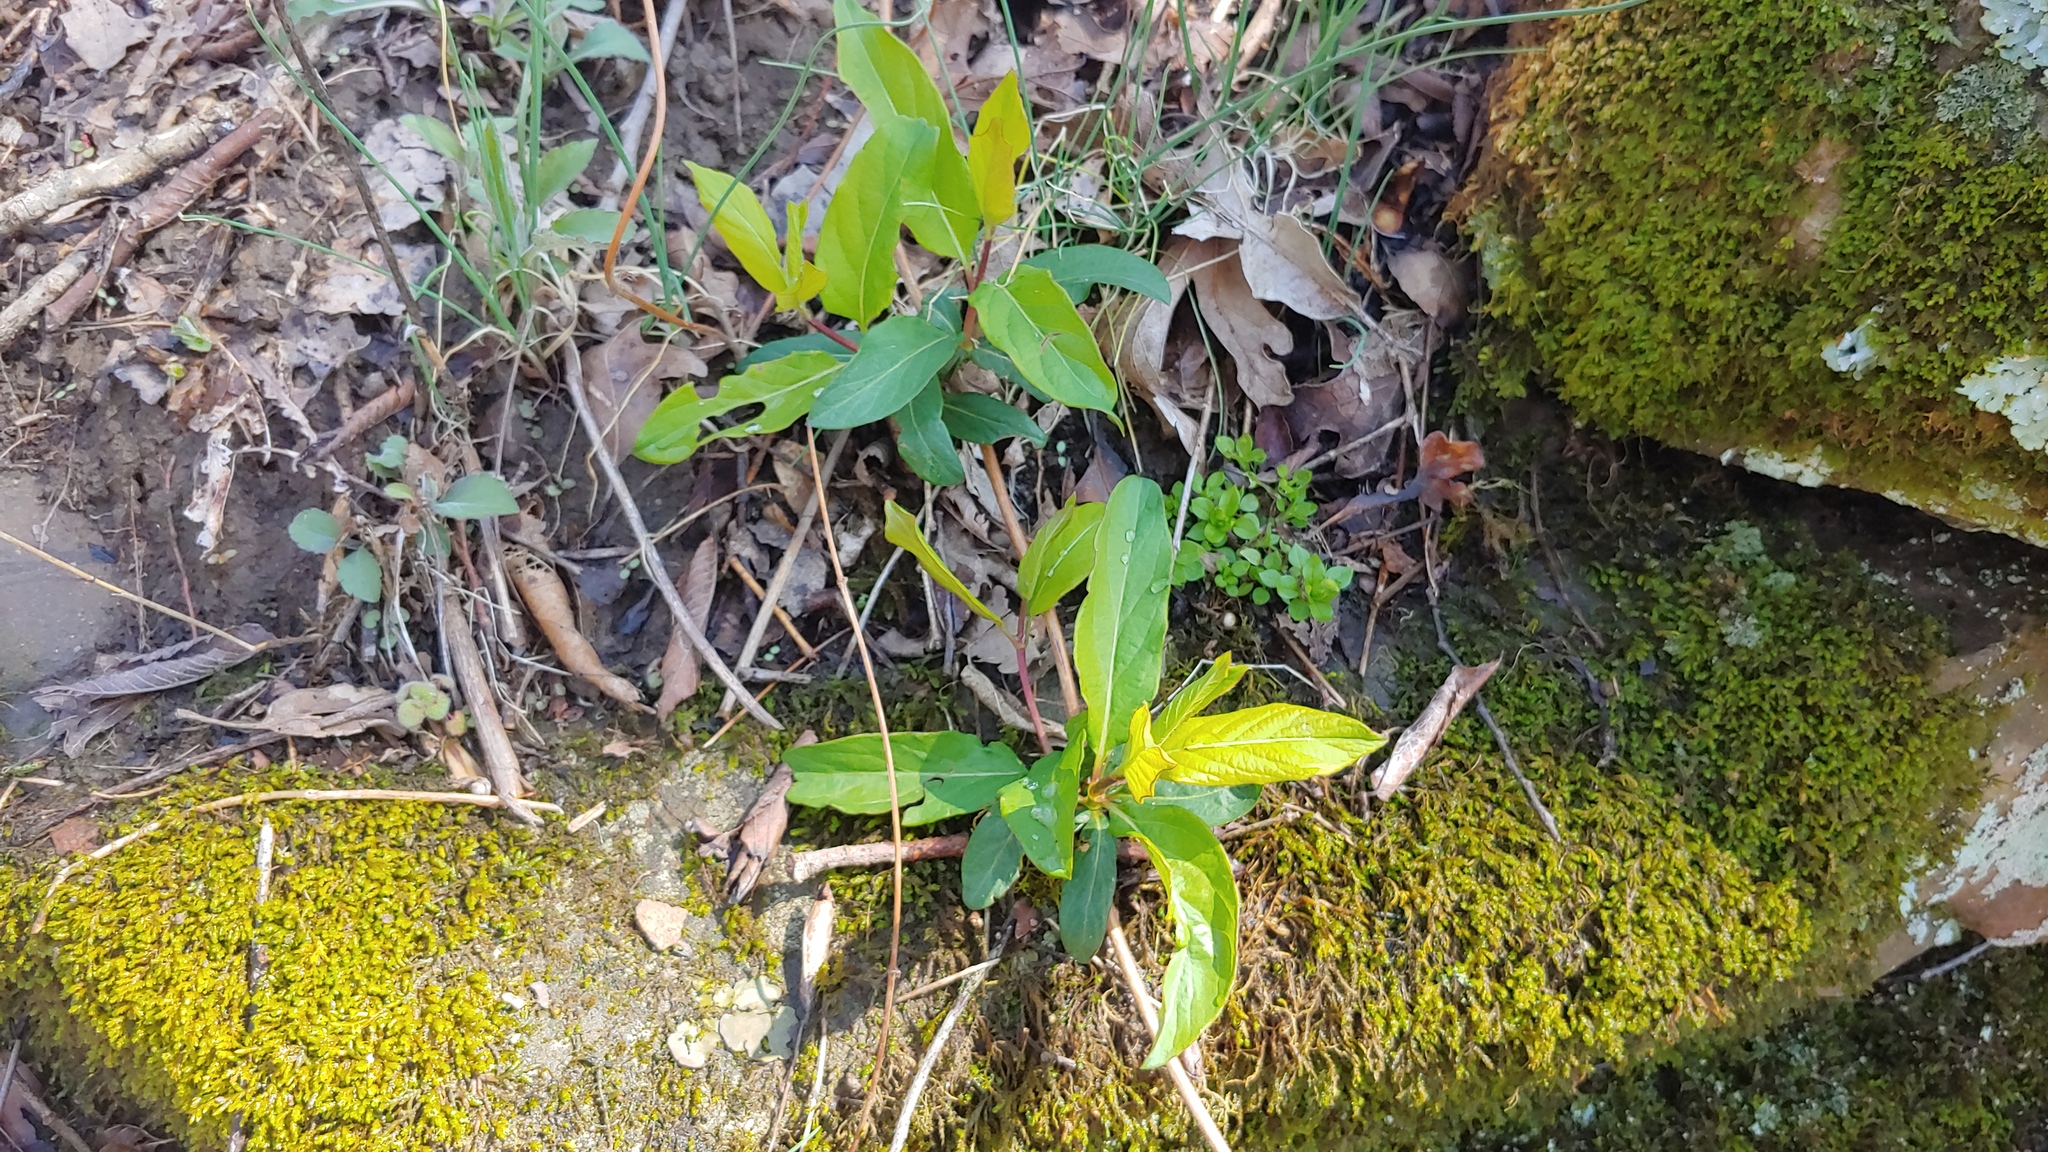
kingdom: Plantae
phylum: Tracheophyta
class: Magnoliopsida
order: Dipsacales
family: Caprifoliaceae
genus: Lonicera
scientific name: Lonicera japonica
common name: Japanese honeysuckle
